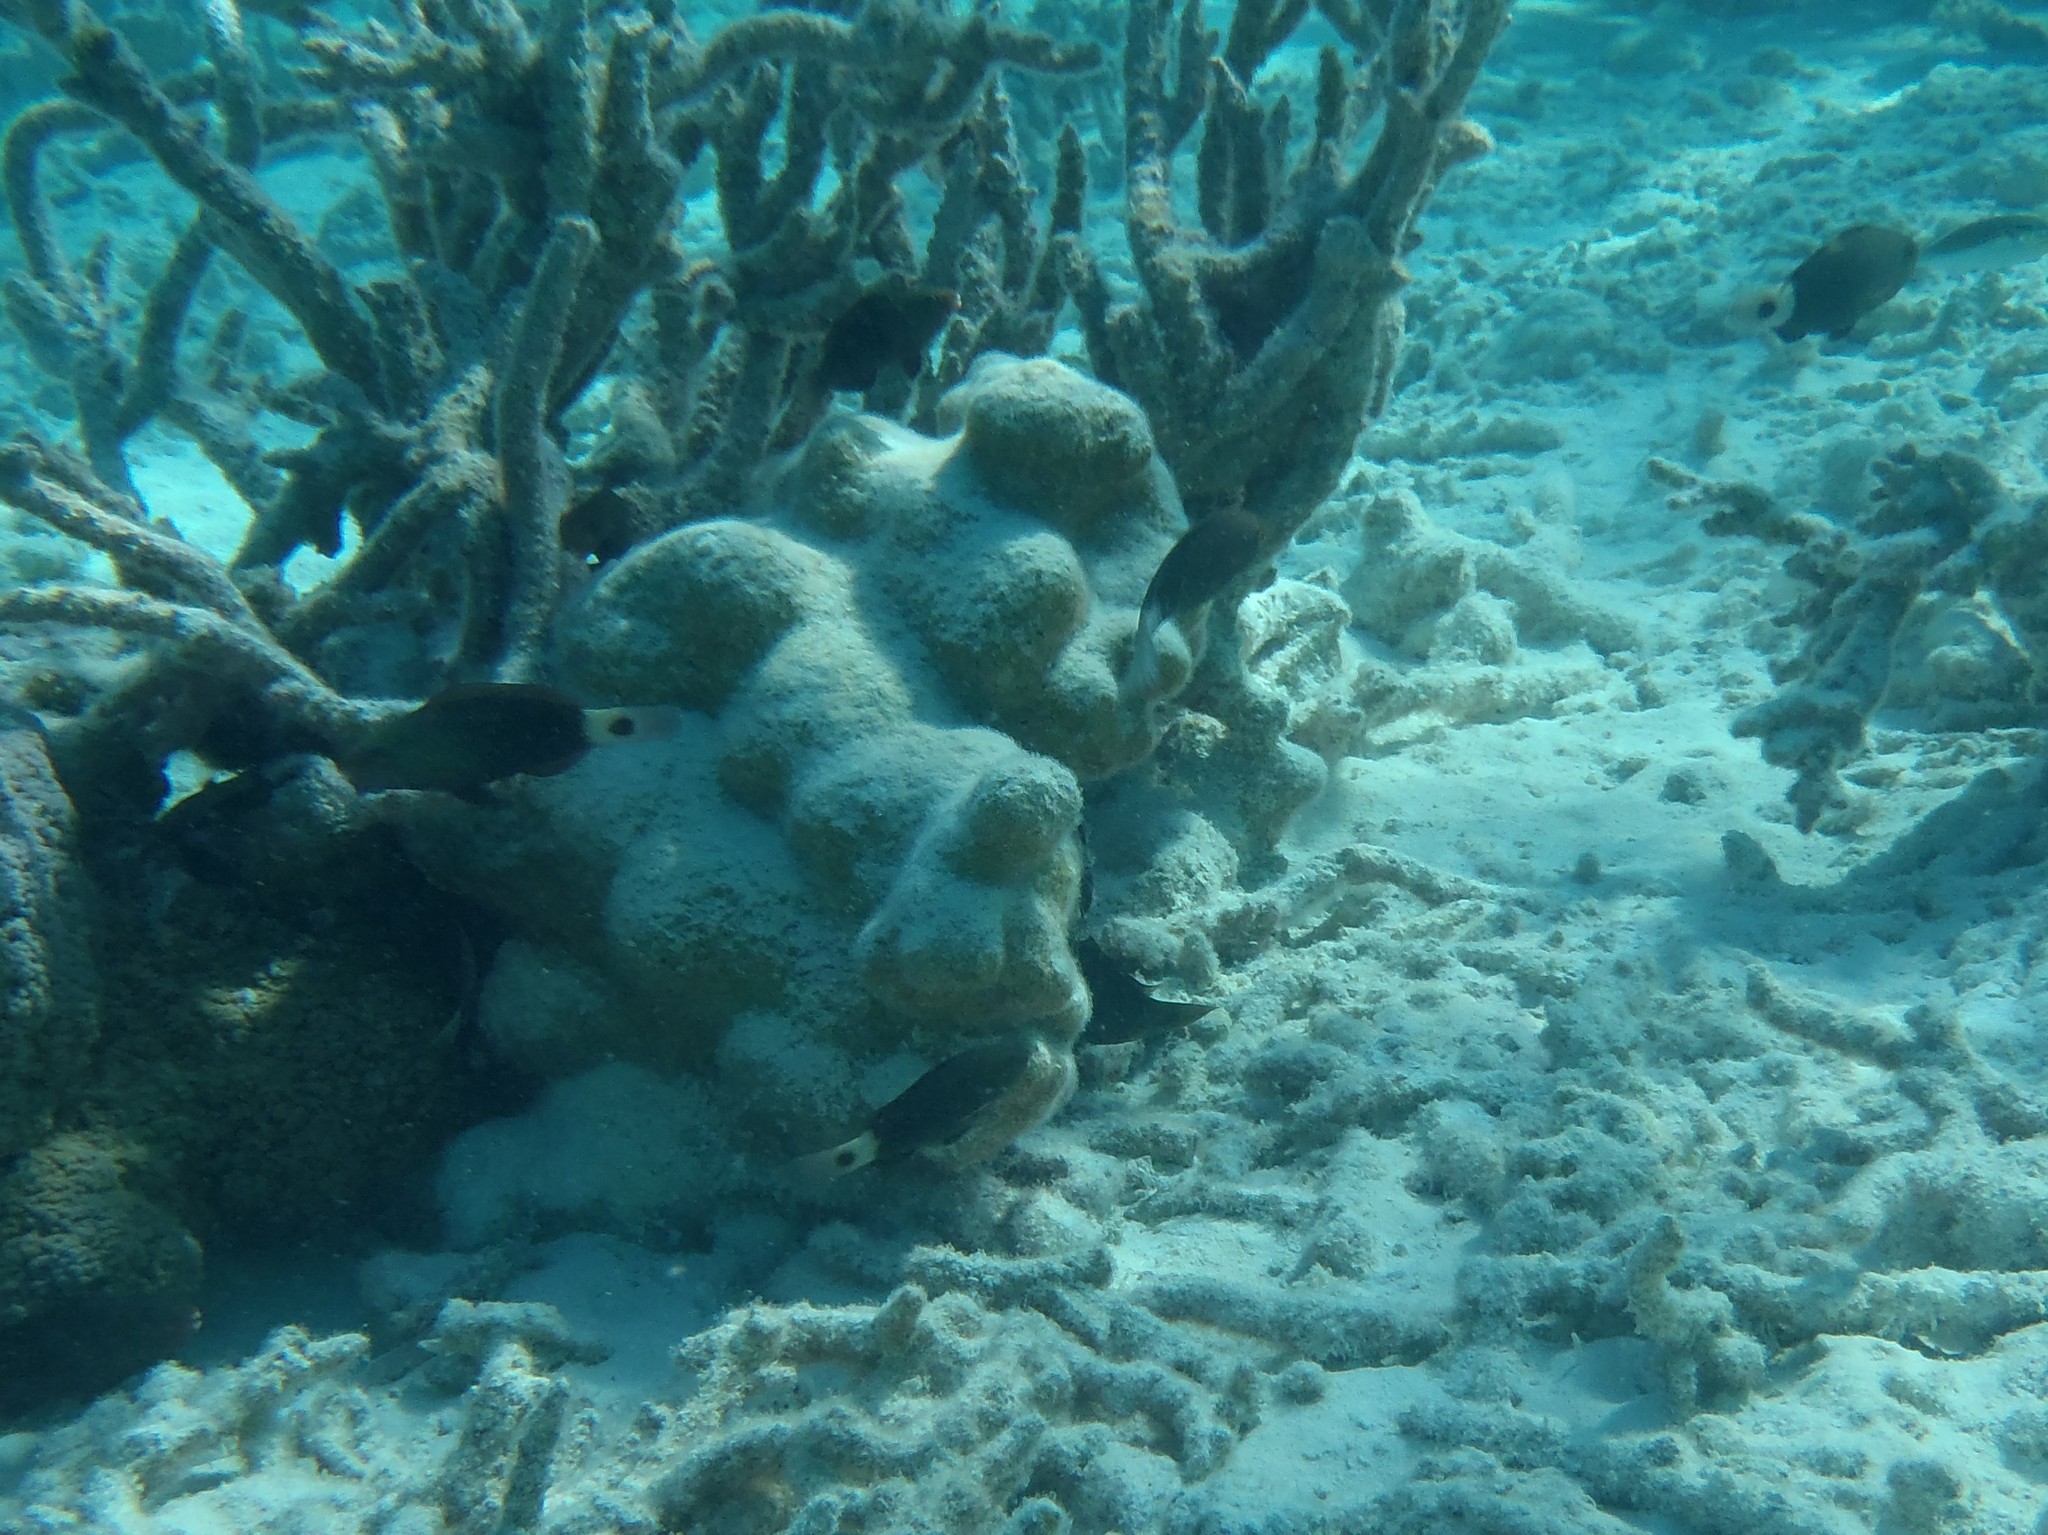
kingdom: Animalia
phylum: Chordata
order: Perciformes
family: Scaridae
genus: Chlorurus
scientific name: Chlorurus spilurus
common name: Bullethead parrotfish
